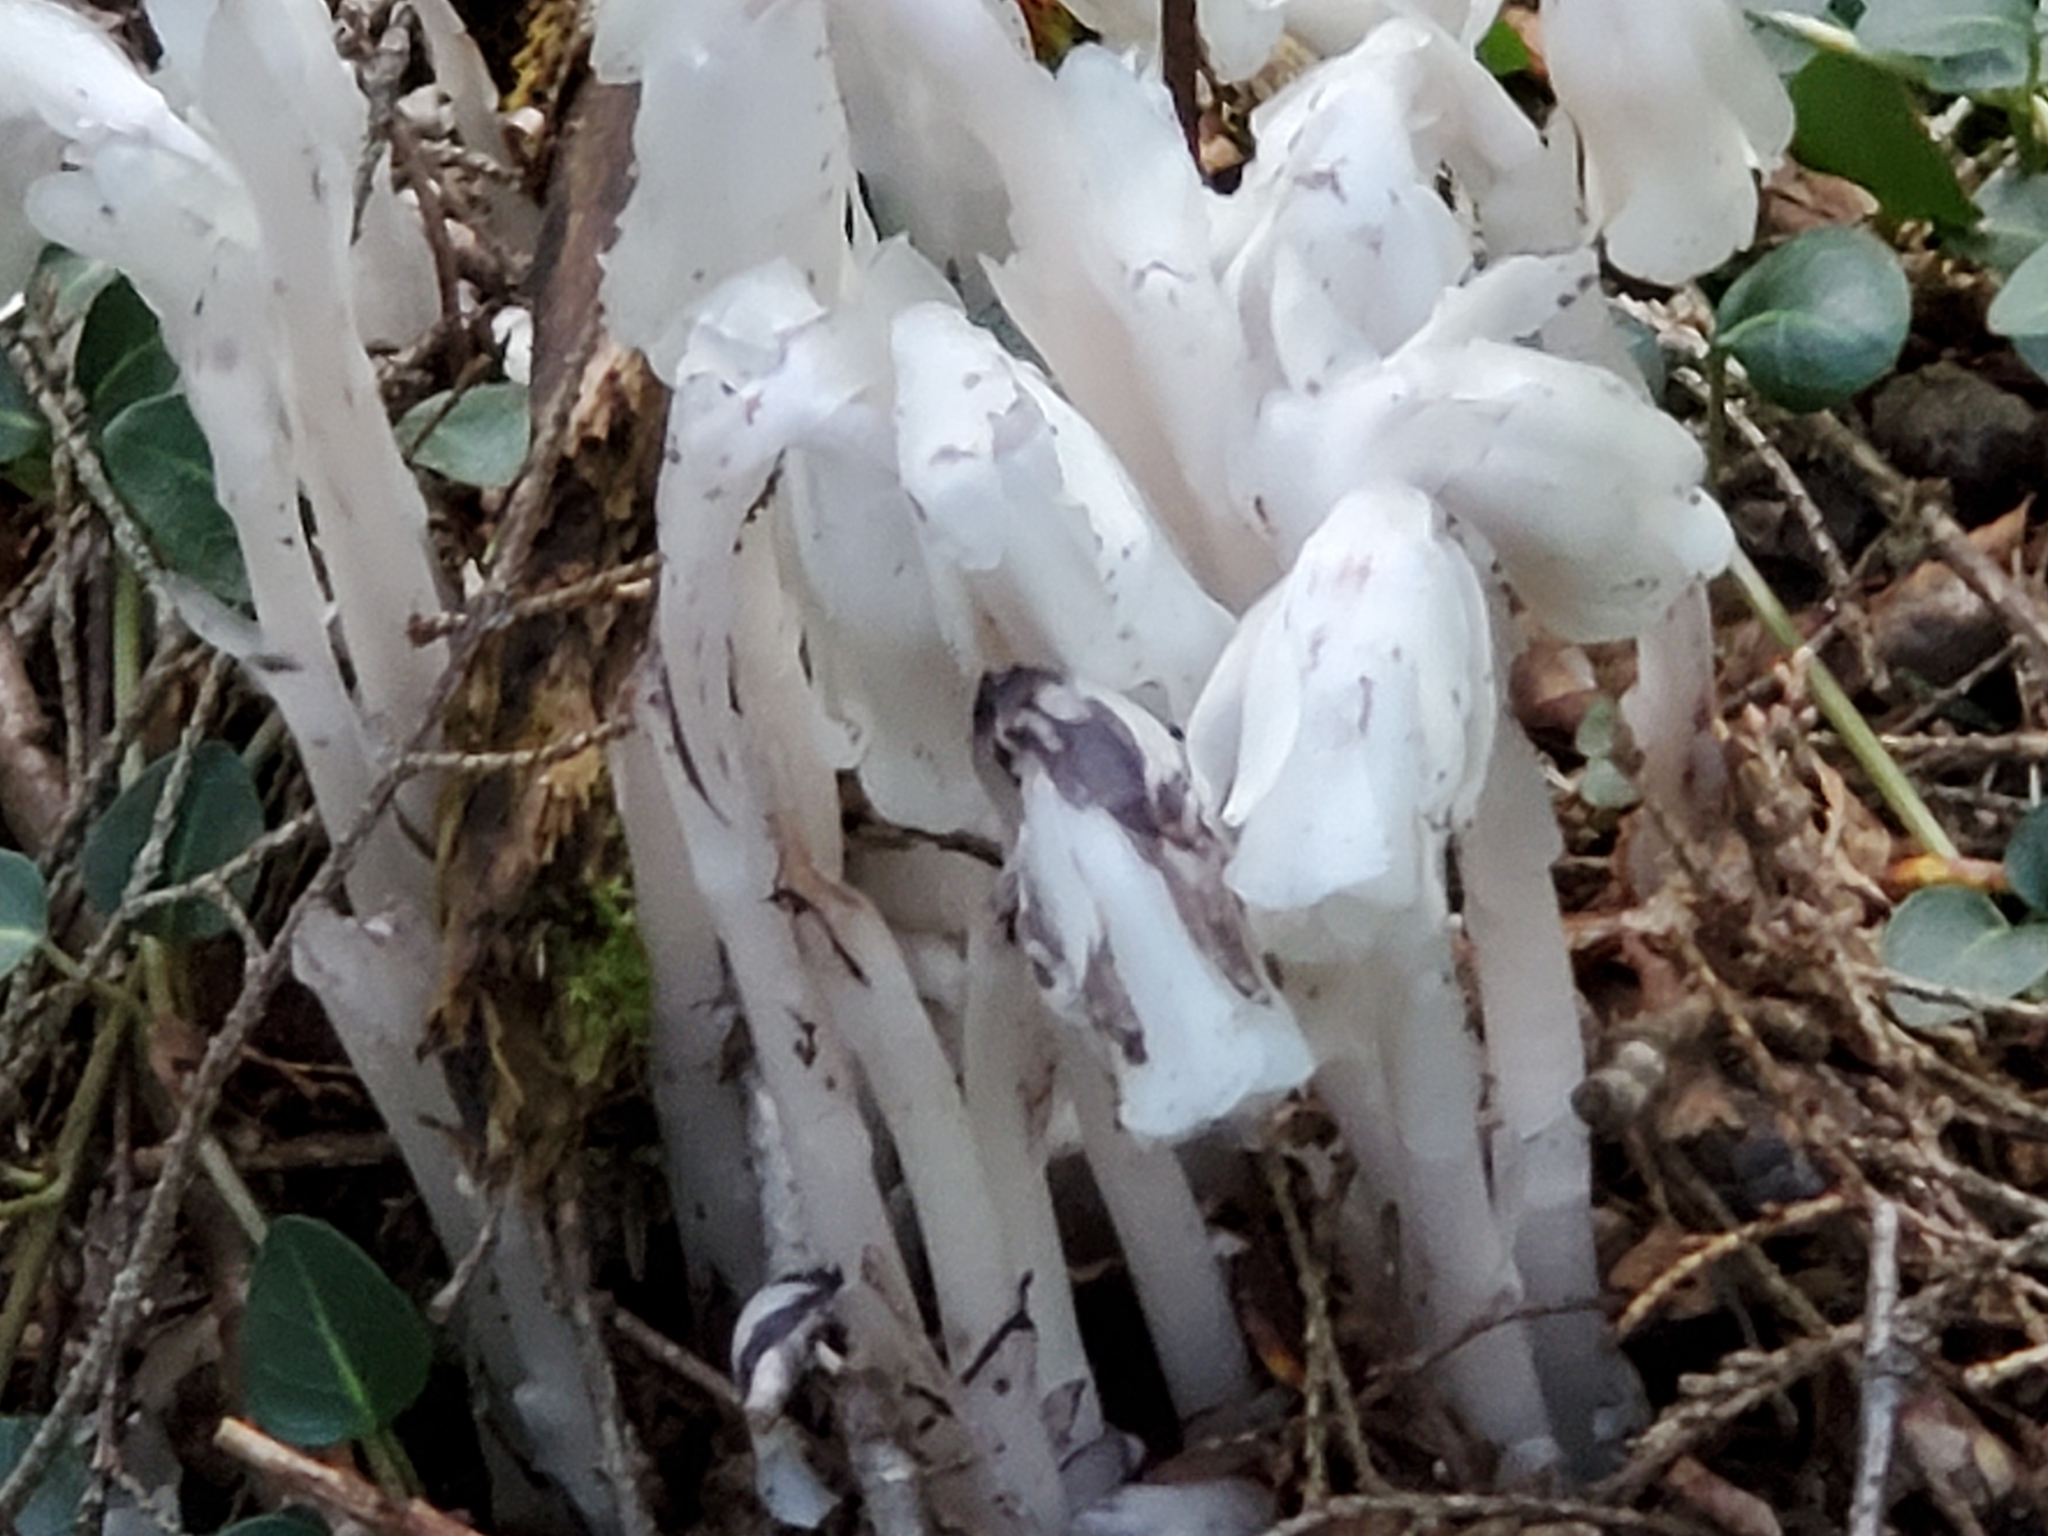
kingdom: Plantae
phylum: Tracheophyta
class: Magnoliopsida
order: Ericales
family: Ericaceae
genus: Monotropa
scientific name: Monotropa uniflora
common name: Convulsion root
